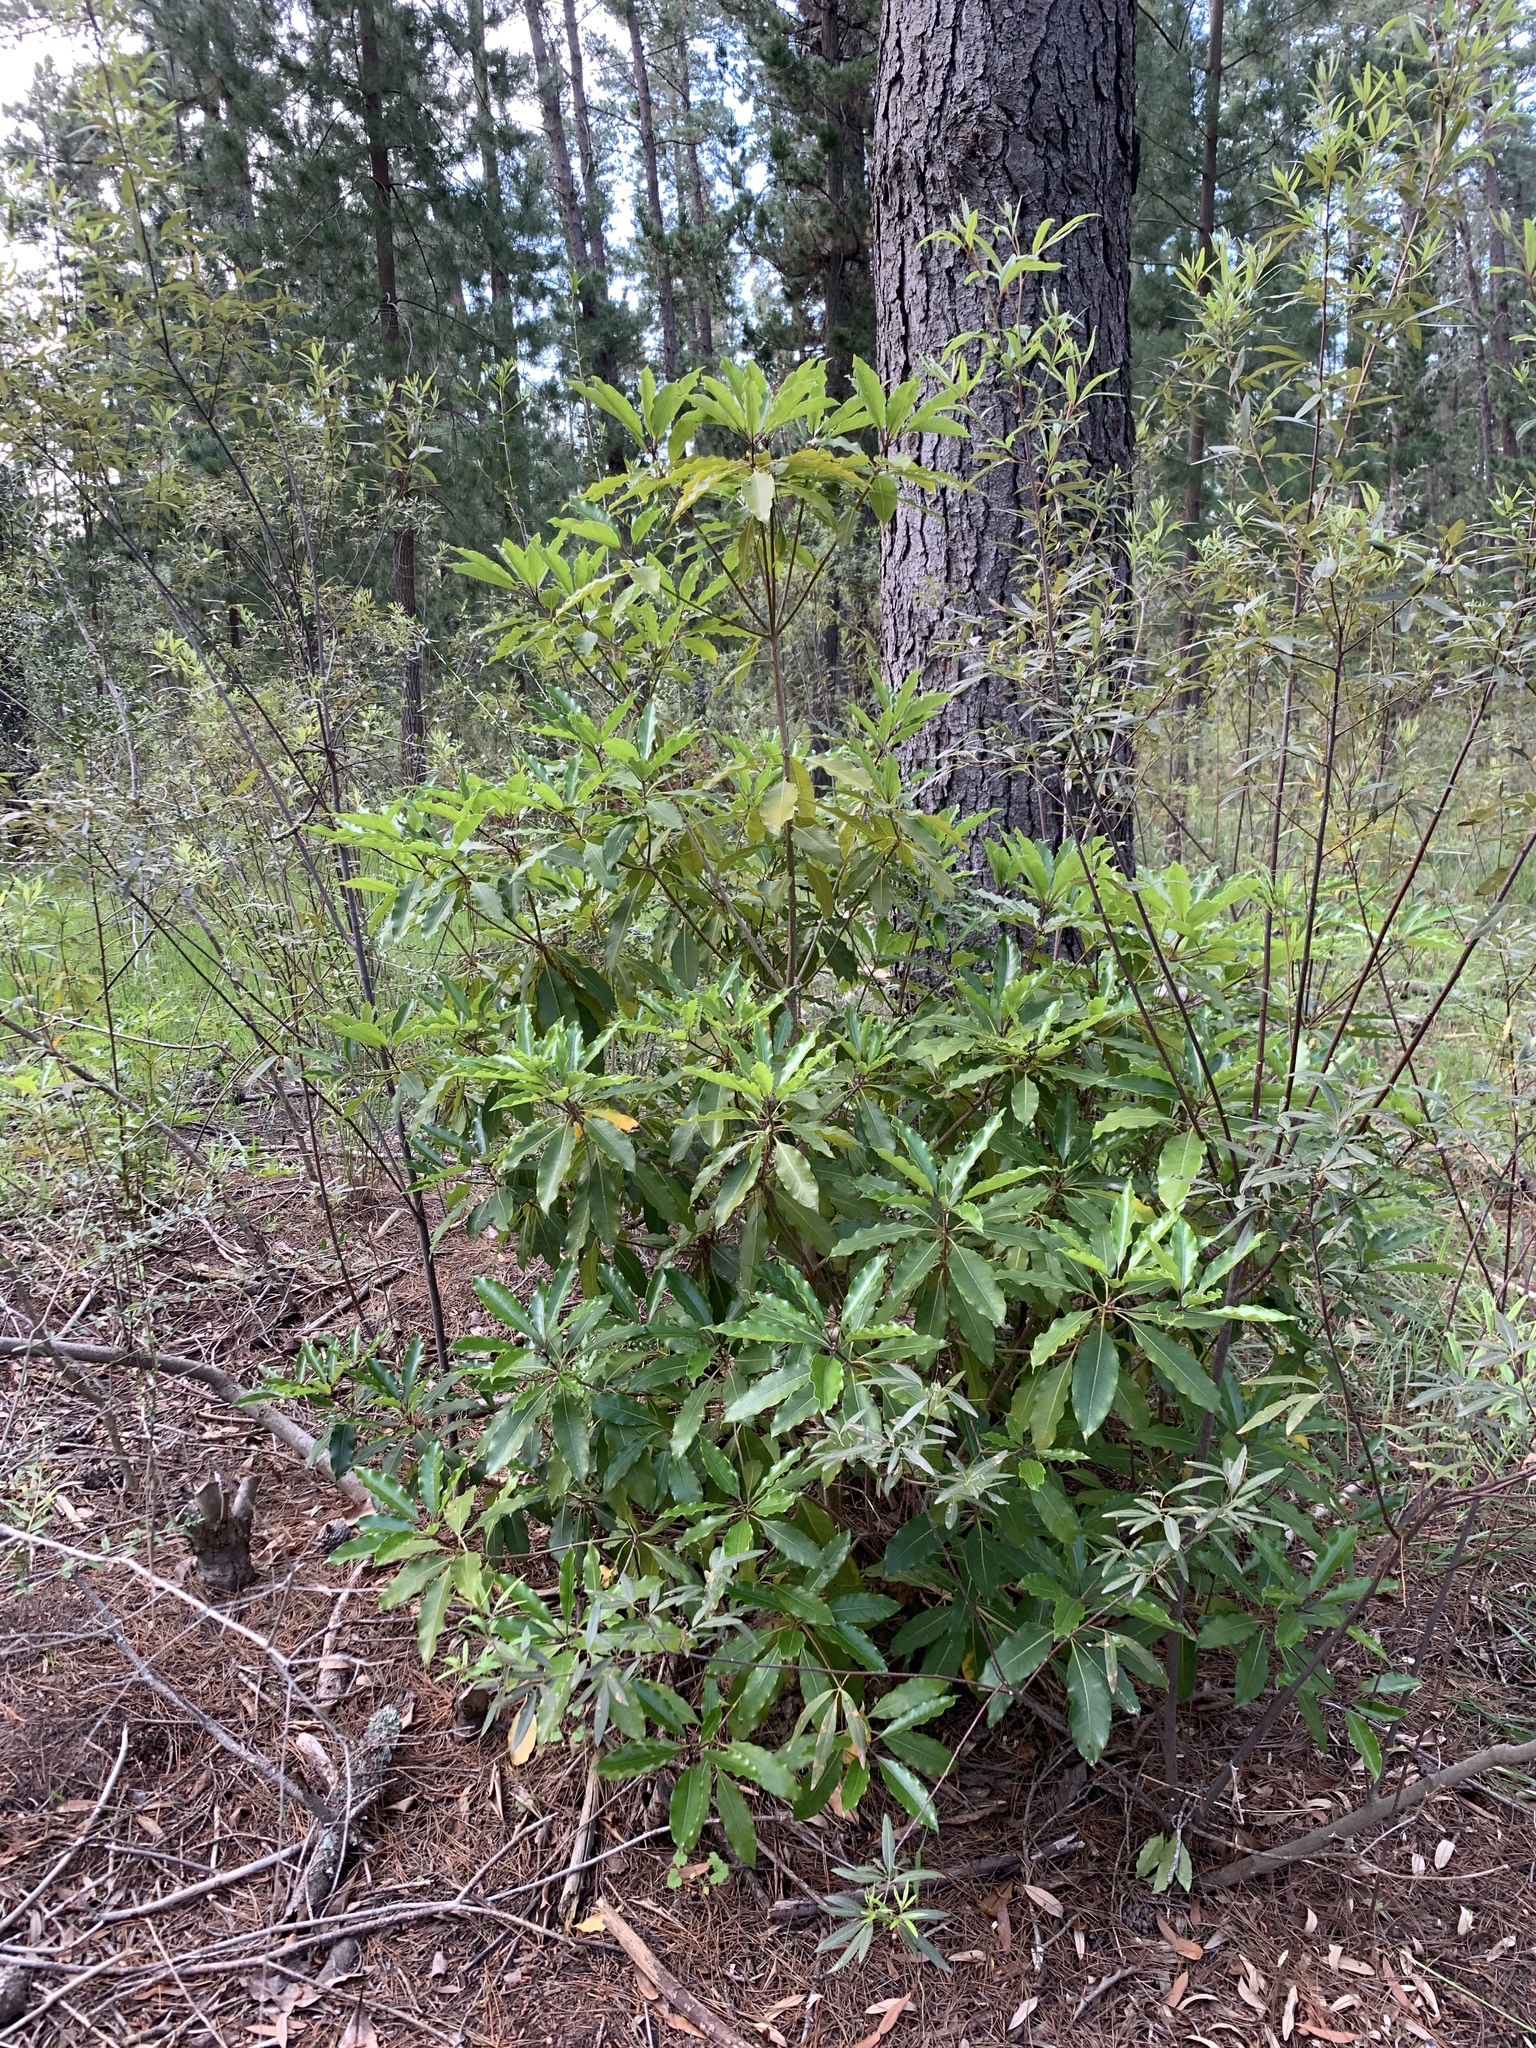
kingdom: Plantae
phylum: Tracheophyta
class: Magnoliopsida
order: Apiales
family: Pittosporaceae
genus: Pittosporum
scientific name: Pittosporum undulatum
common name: Australian cheesewood
